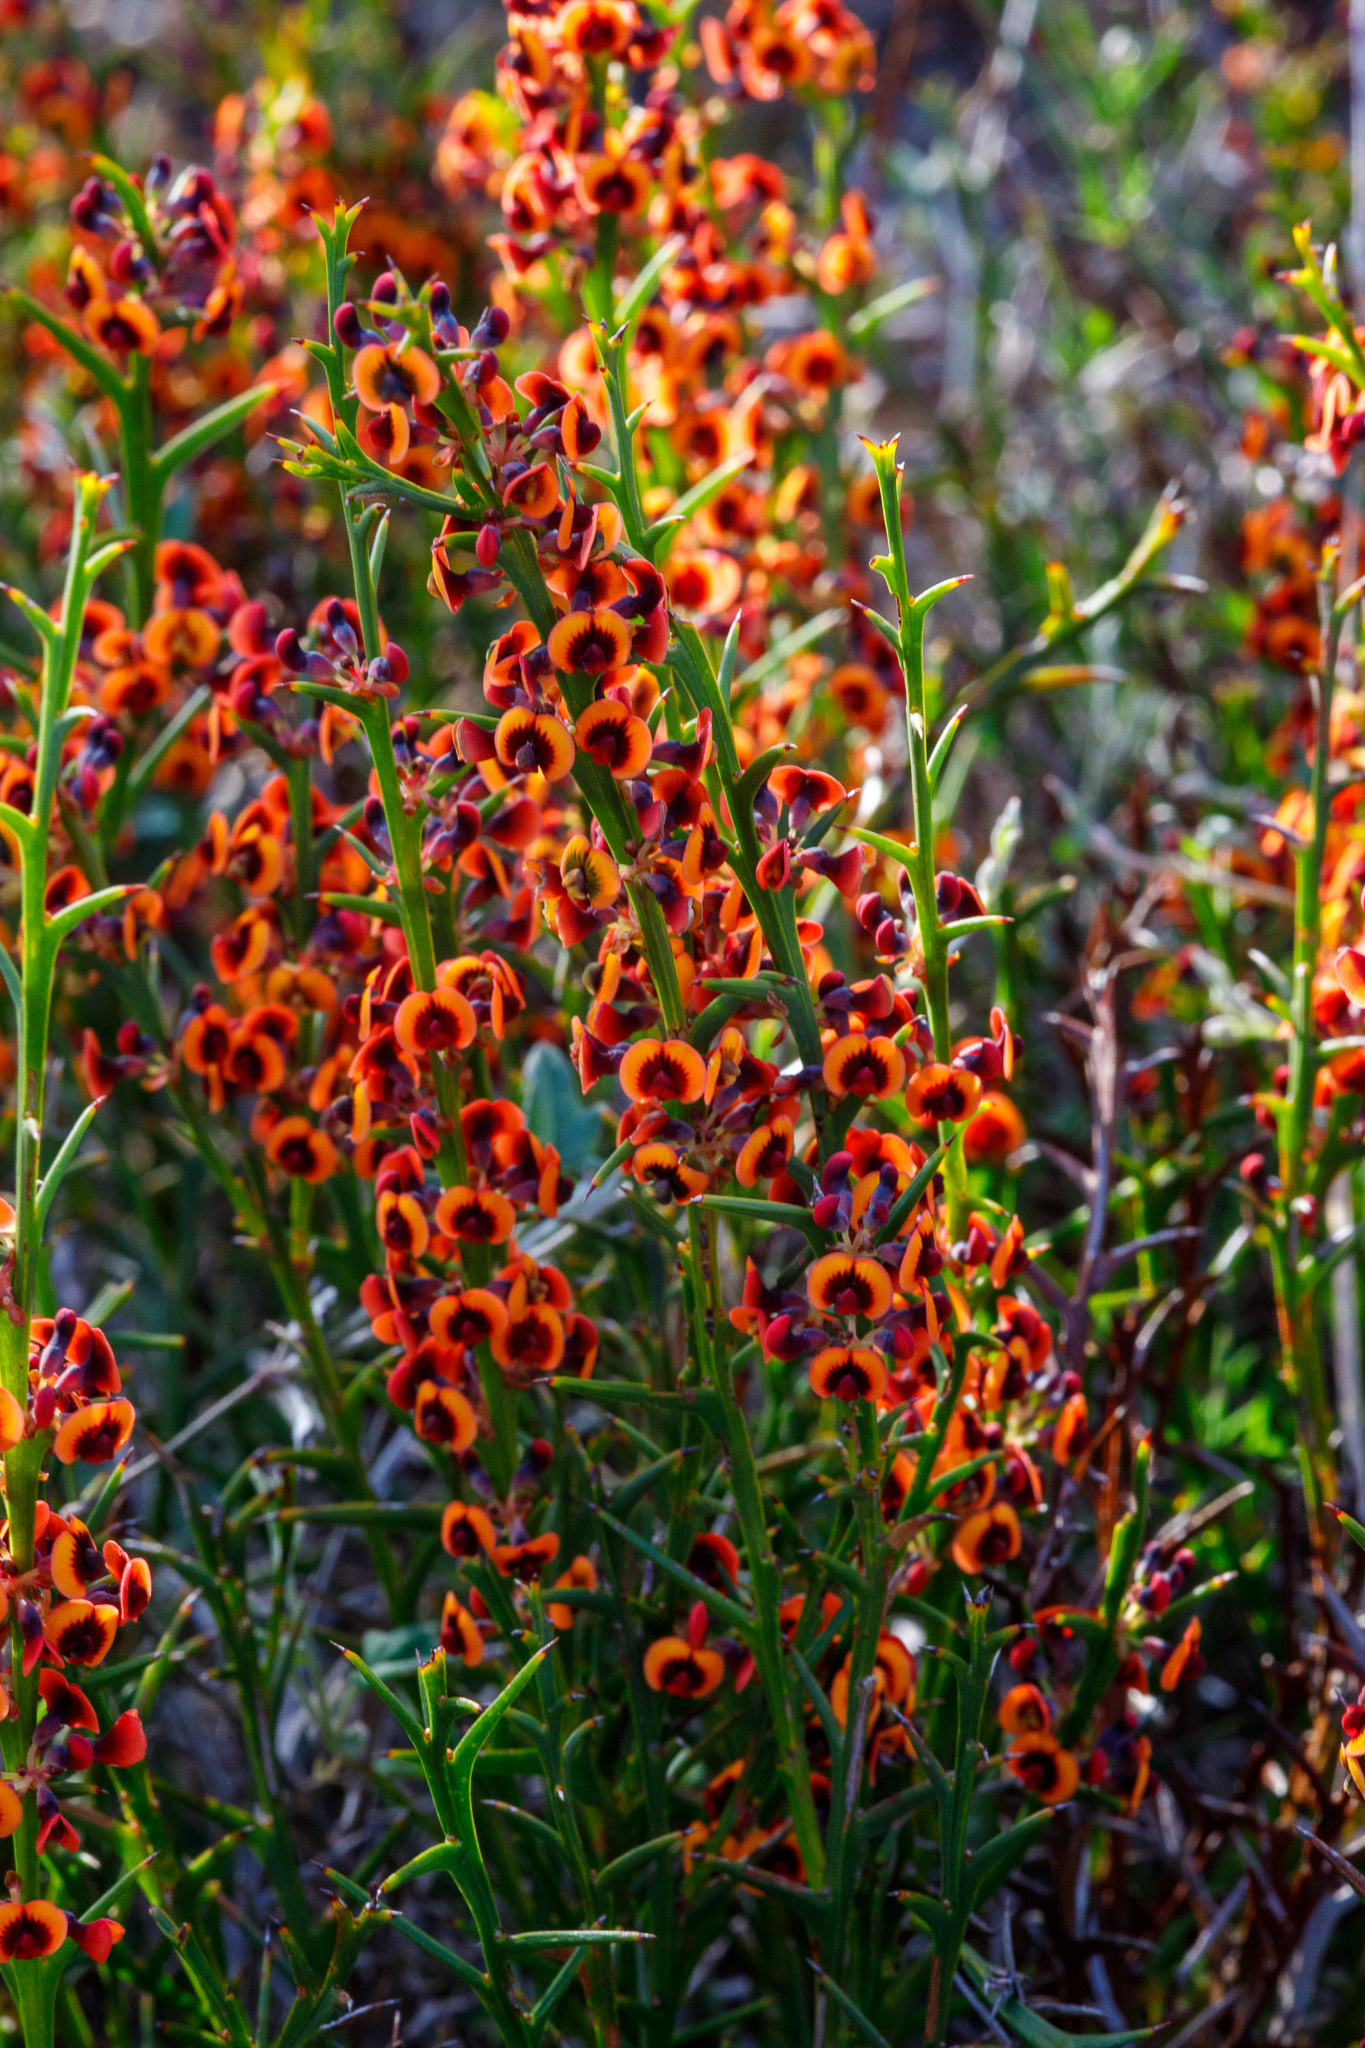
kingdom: Plantae
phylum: Tracheophyta
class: Magnoliopsida
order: Fabales
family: Fabaceae
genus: Daviesia
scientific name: Daviesia decurrens
